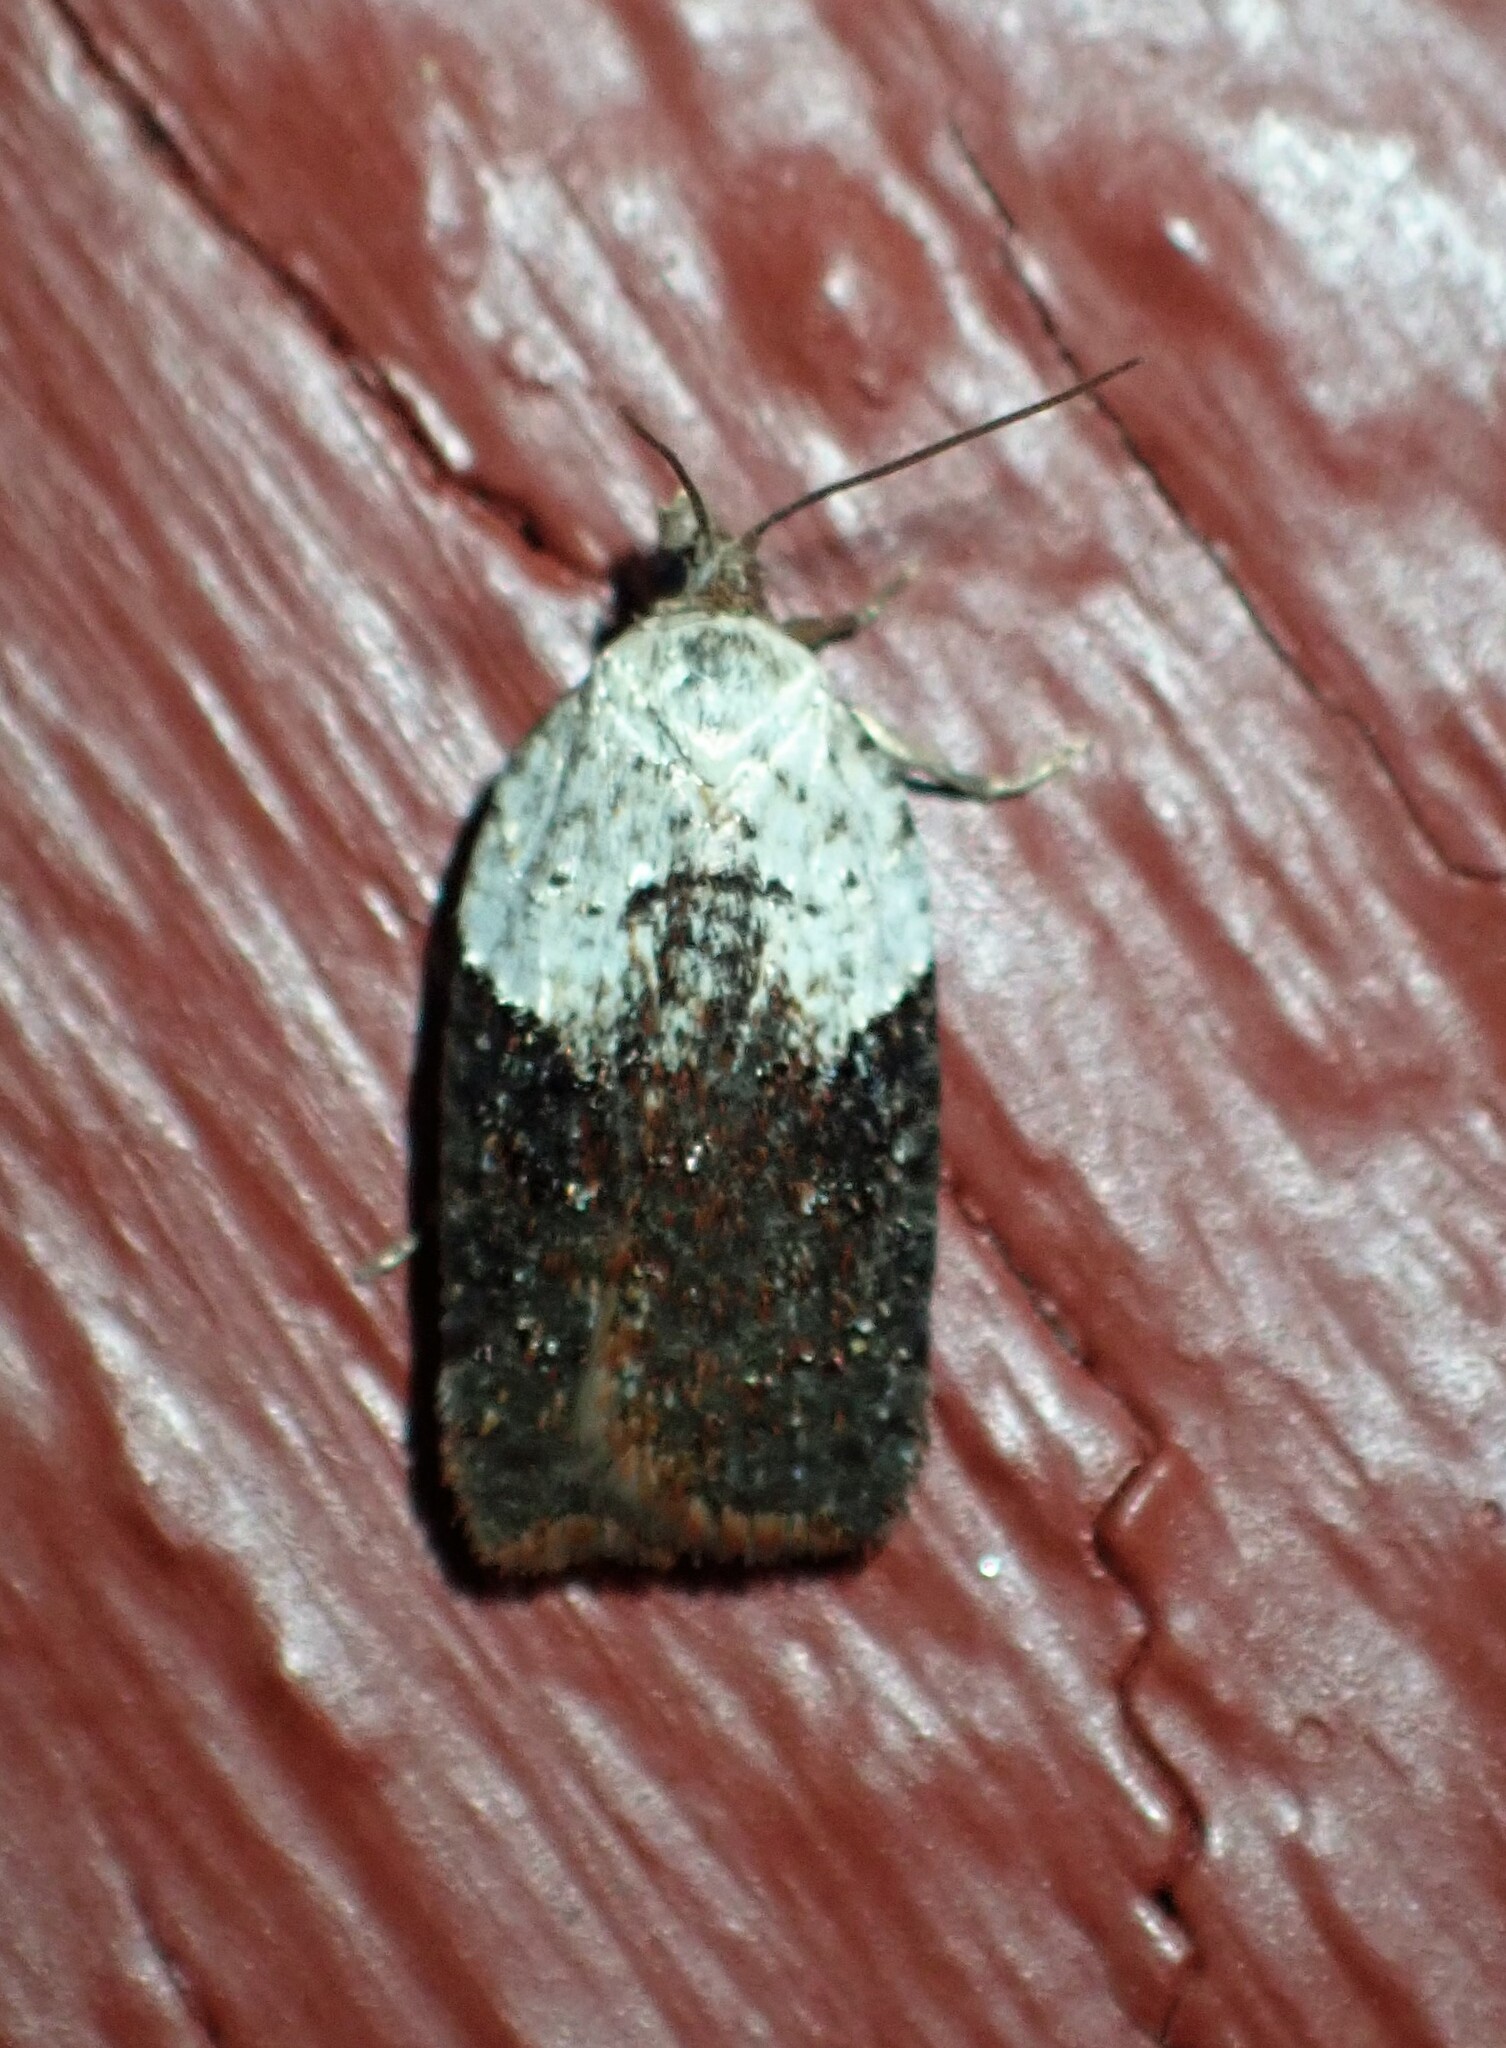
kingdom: Animalia
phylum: Arthropoda
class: Insecta
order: Lepidoptera
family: Tortricidae
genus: Acleris
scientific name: Acleris braunana
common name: Alder leafroller
